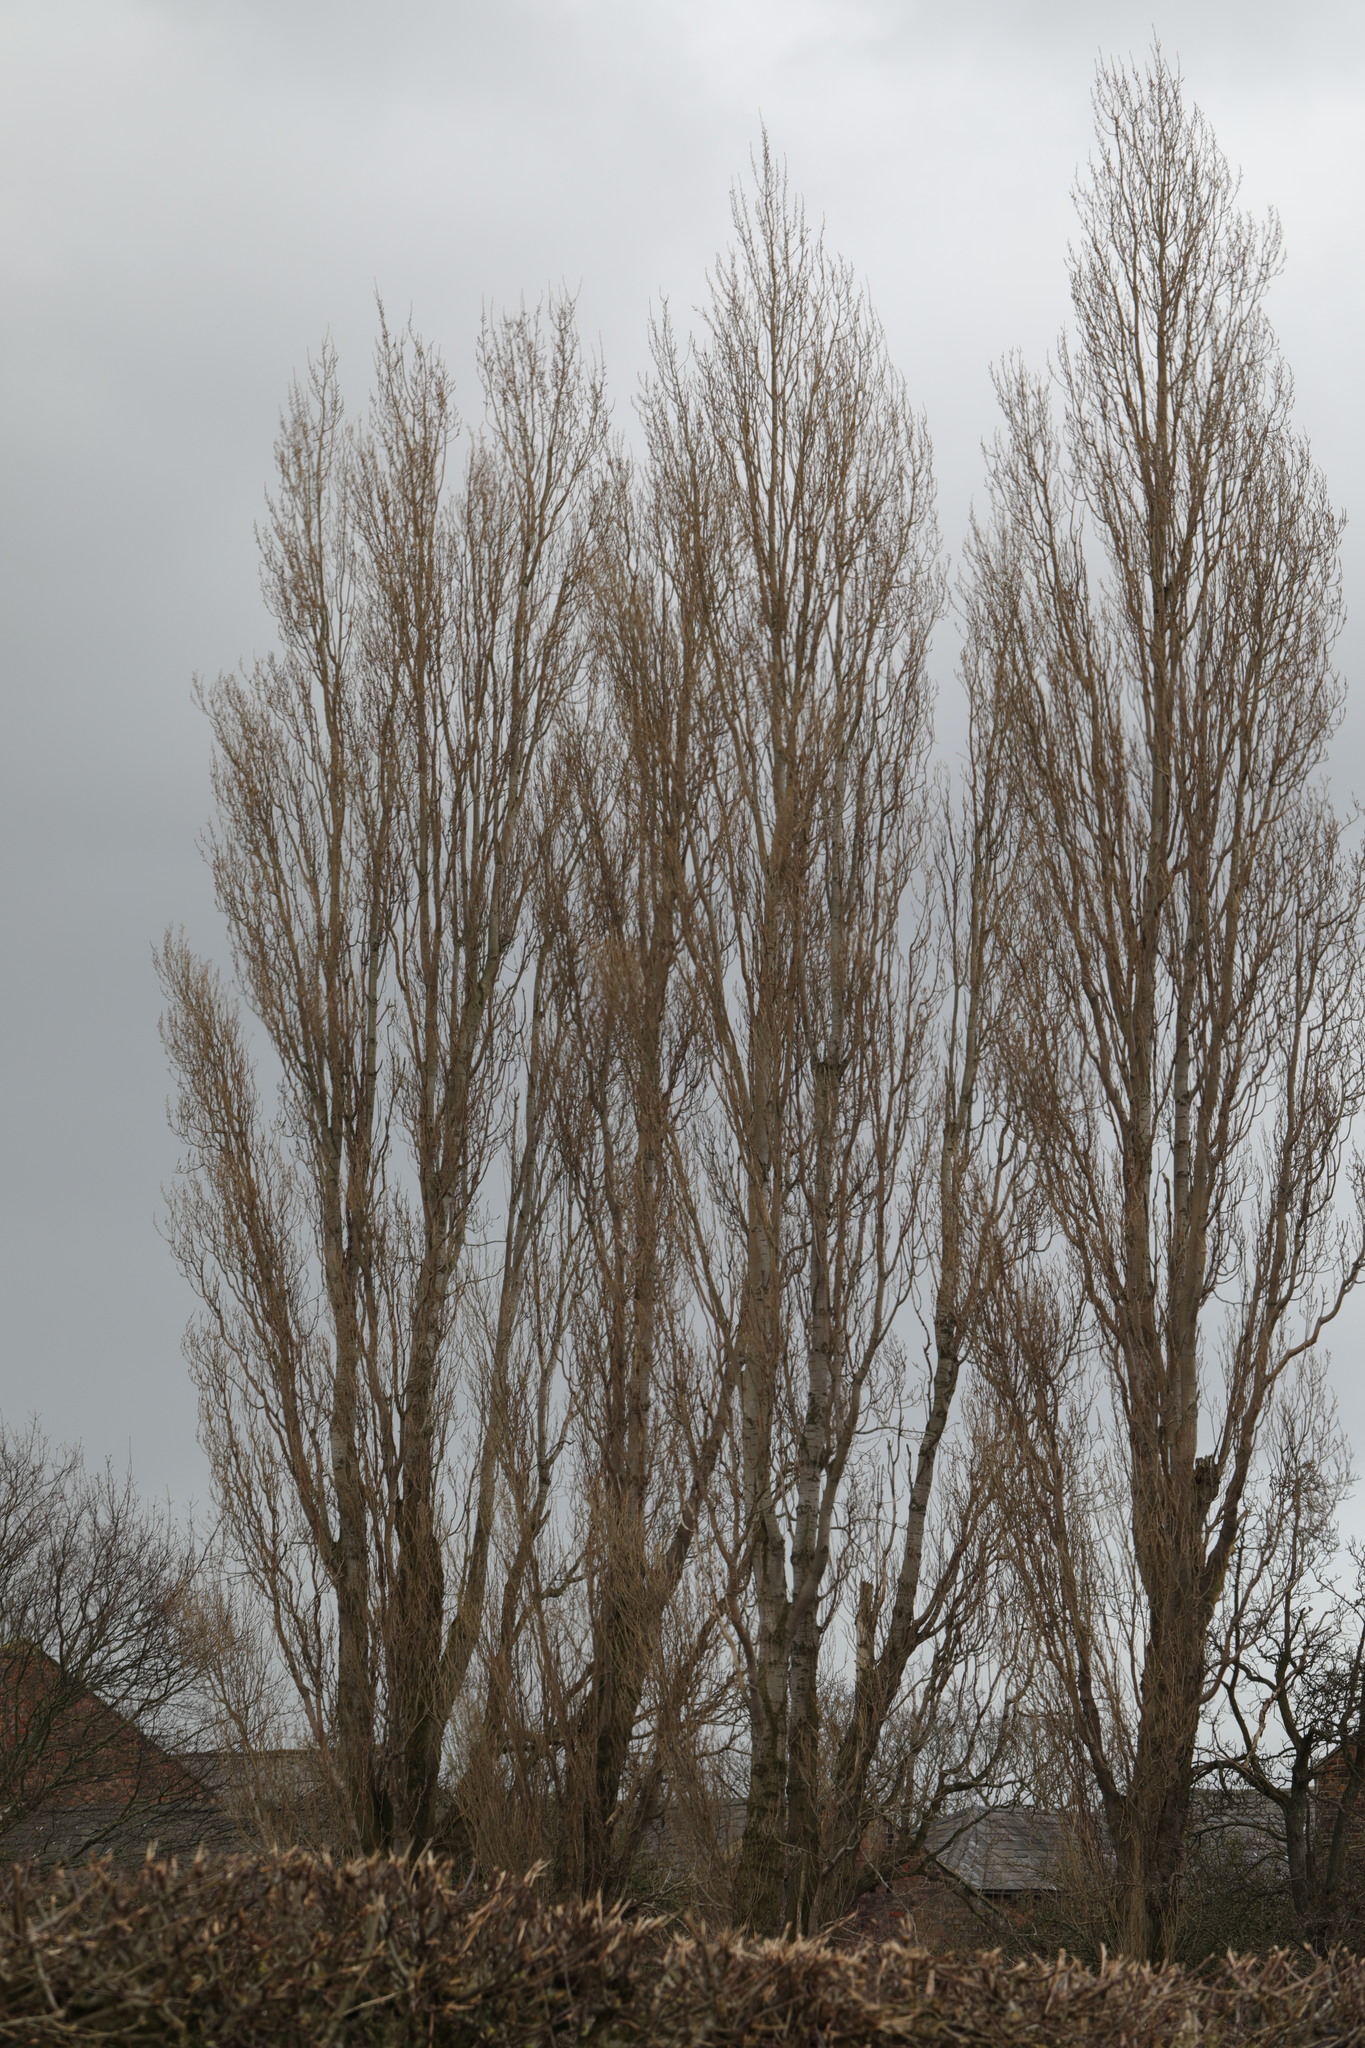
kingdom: Plantae
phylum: Tracheophyta
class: Magnoliopsida
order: Malpighiales
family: Salicaceae
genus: Populus
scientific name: Populus nigra
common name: Black poplar
